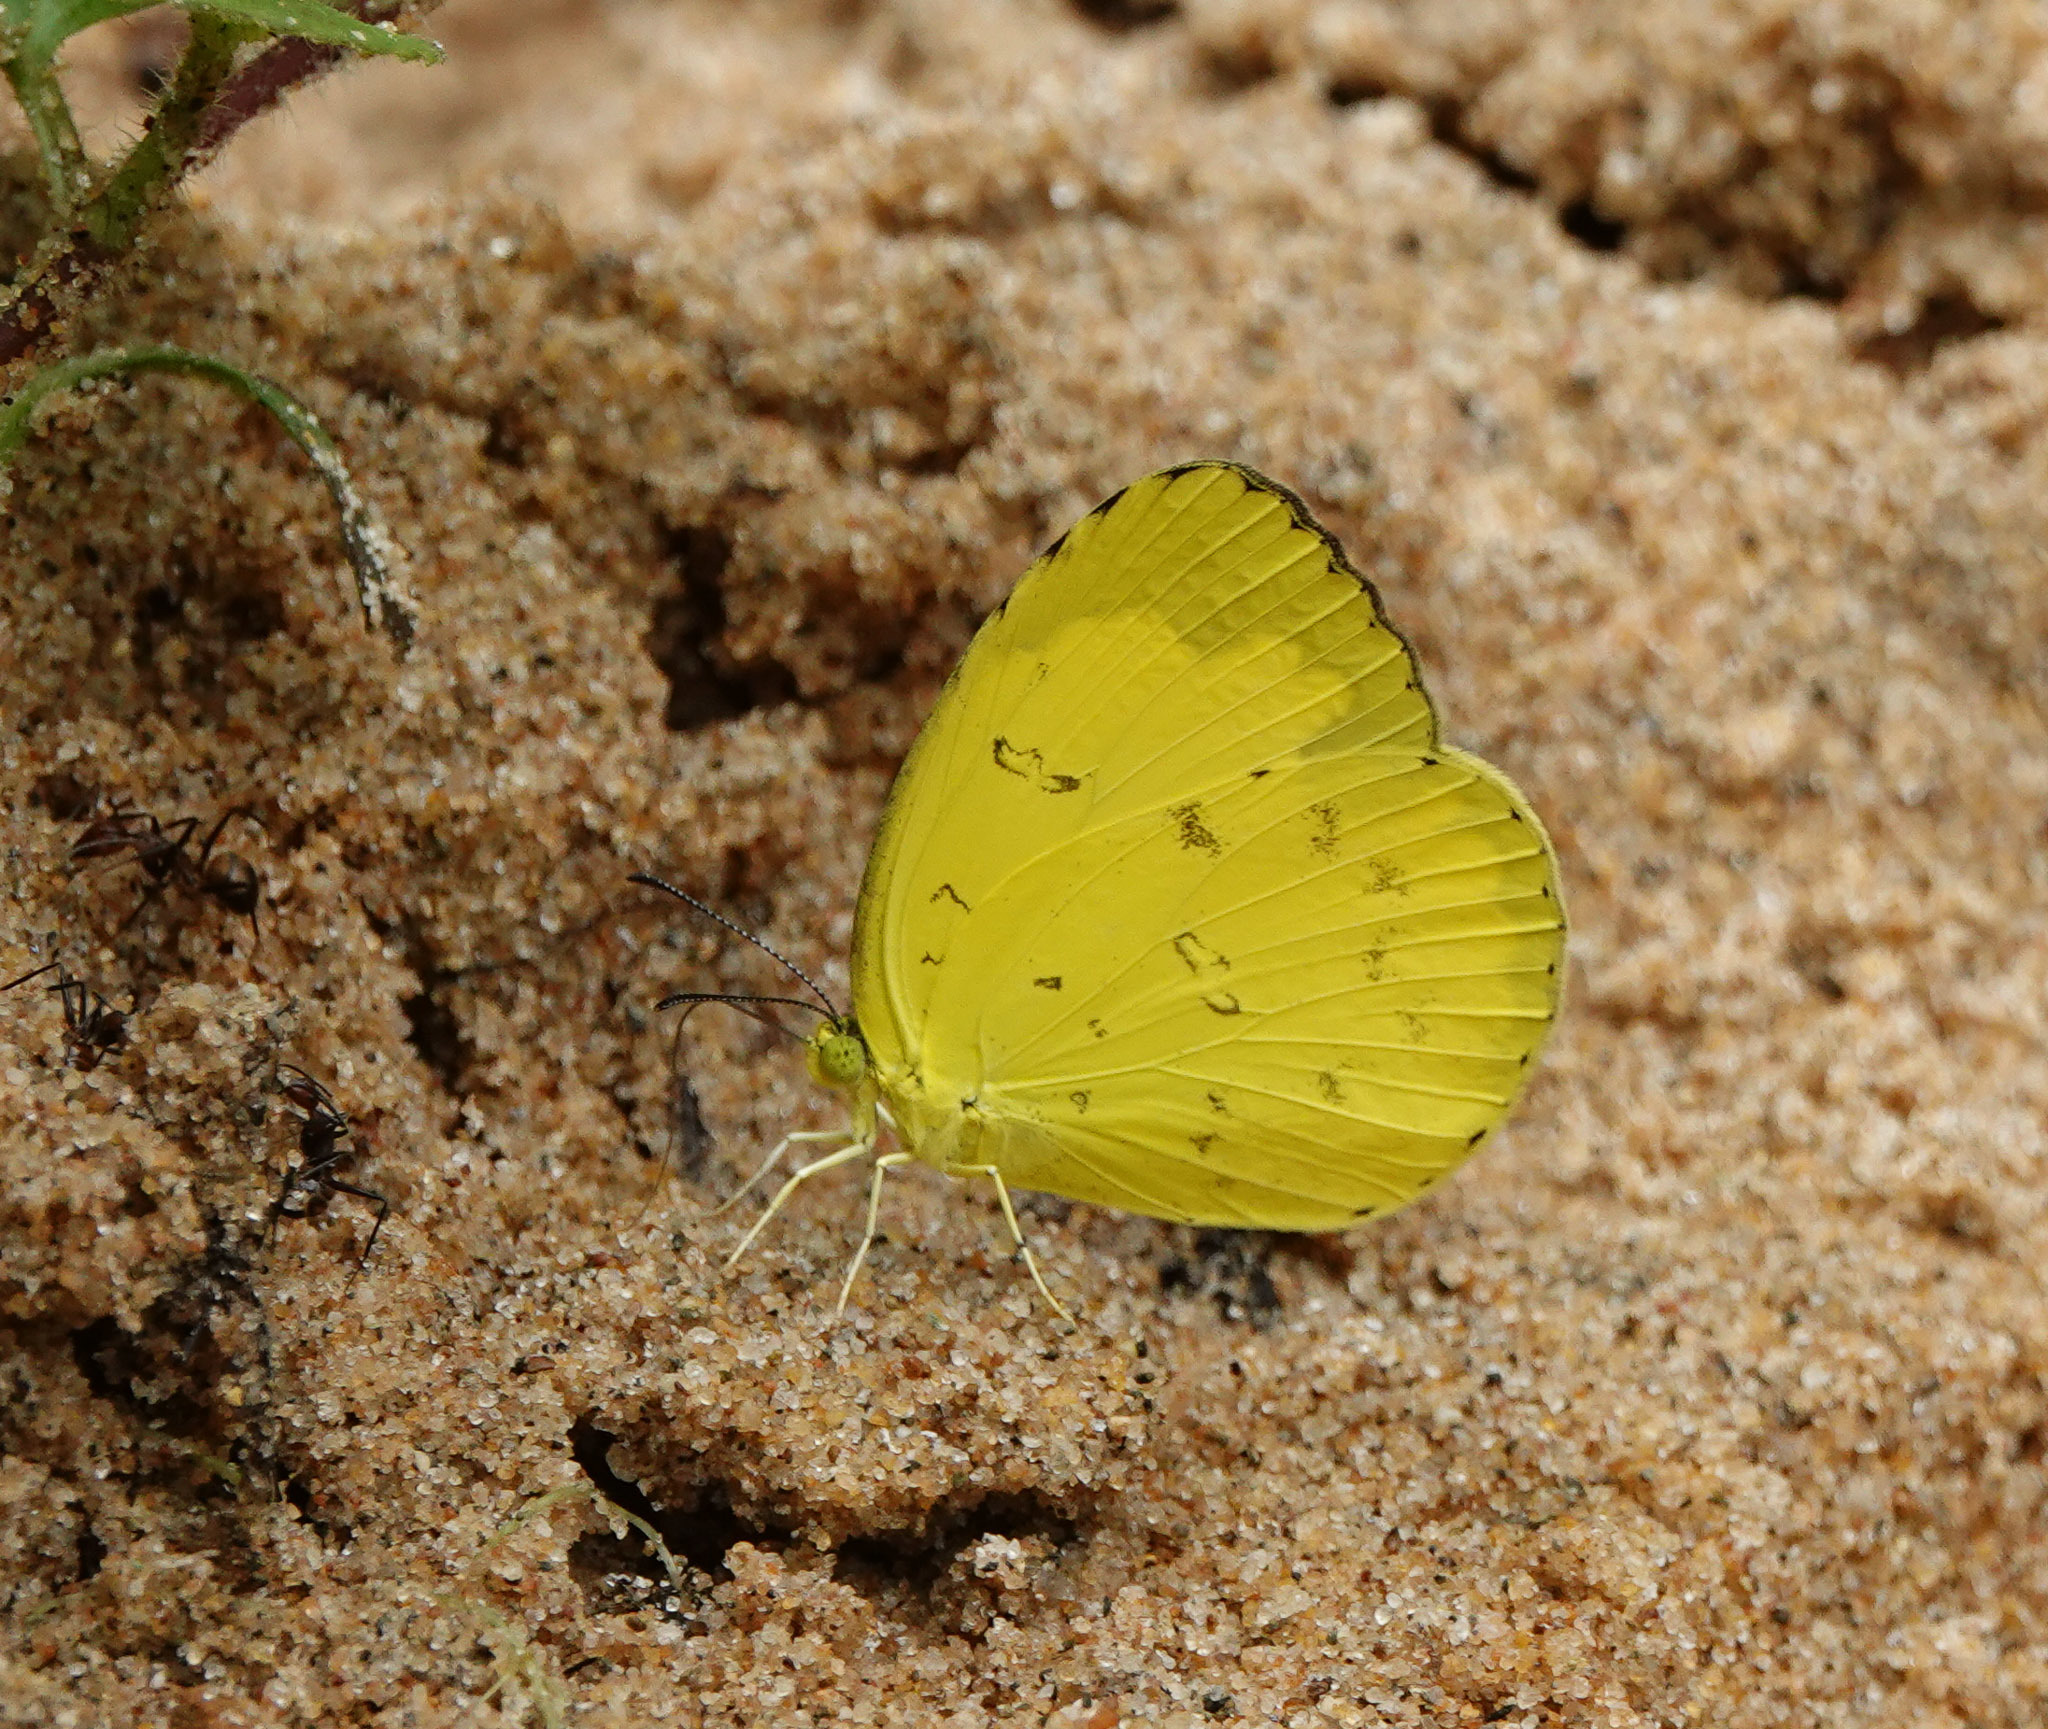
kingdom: Animalia
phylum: Arthropoda
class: Insecta
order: Lepidoptera
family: Pieridae
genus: Eurema
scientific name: Eurema blanda
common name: Three-spot grass yellow
